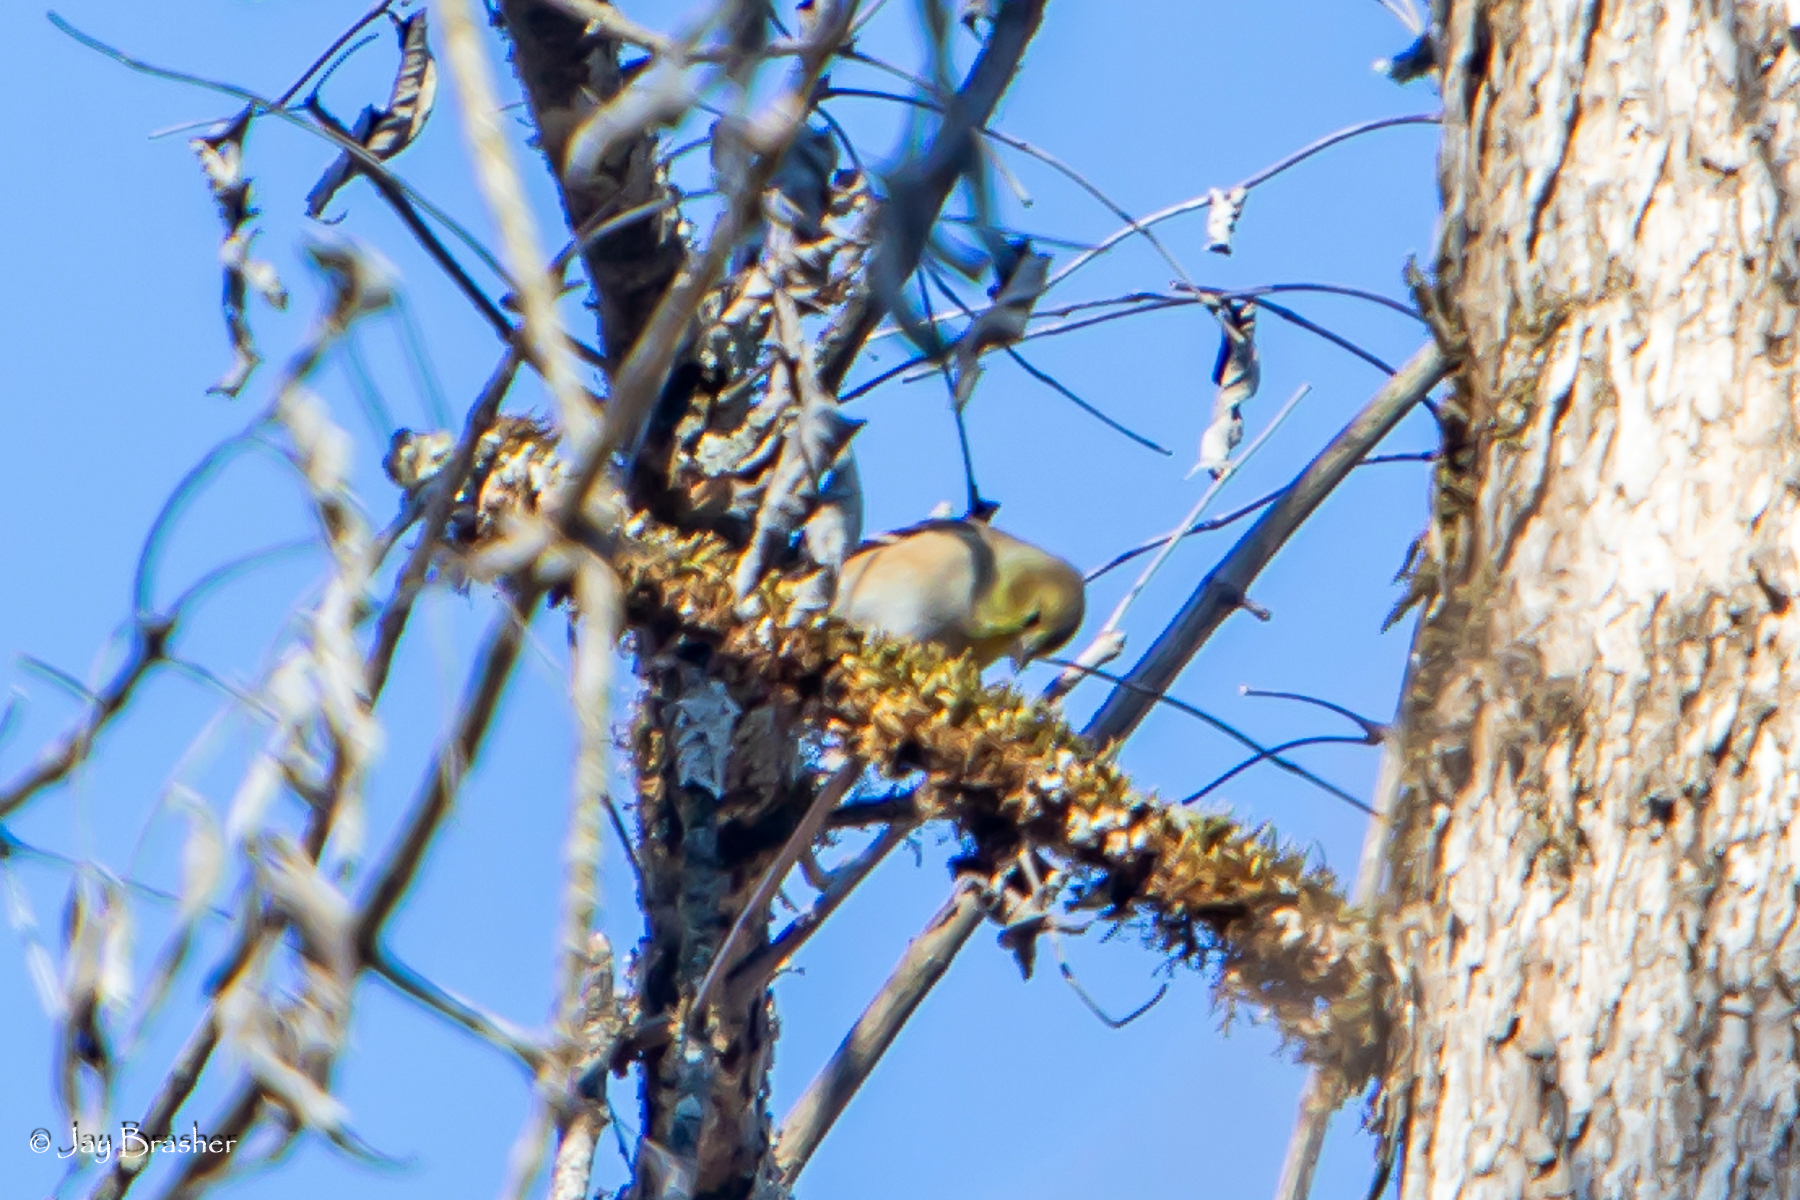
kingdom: Animalia
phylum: Chordata
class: Aves
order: Passeriformes
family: Fringillidae
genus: Spinus
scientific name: Spinus tristis
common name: American goldfinch
